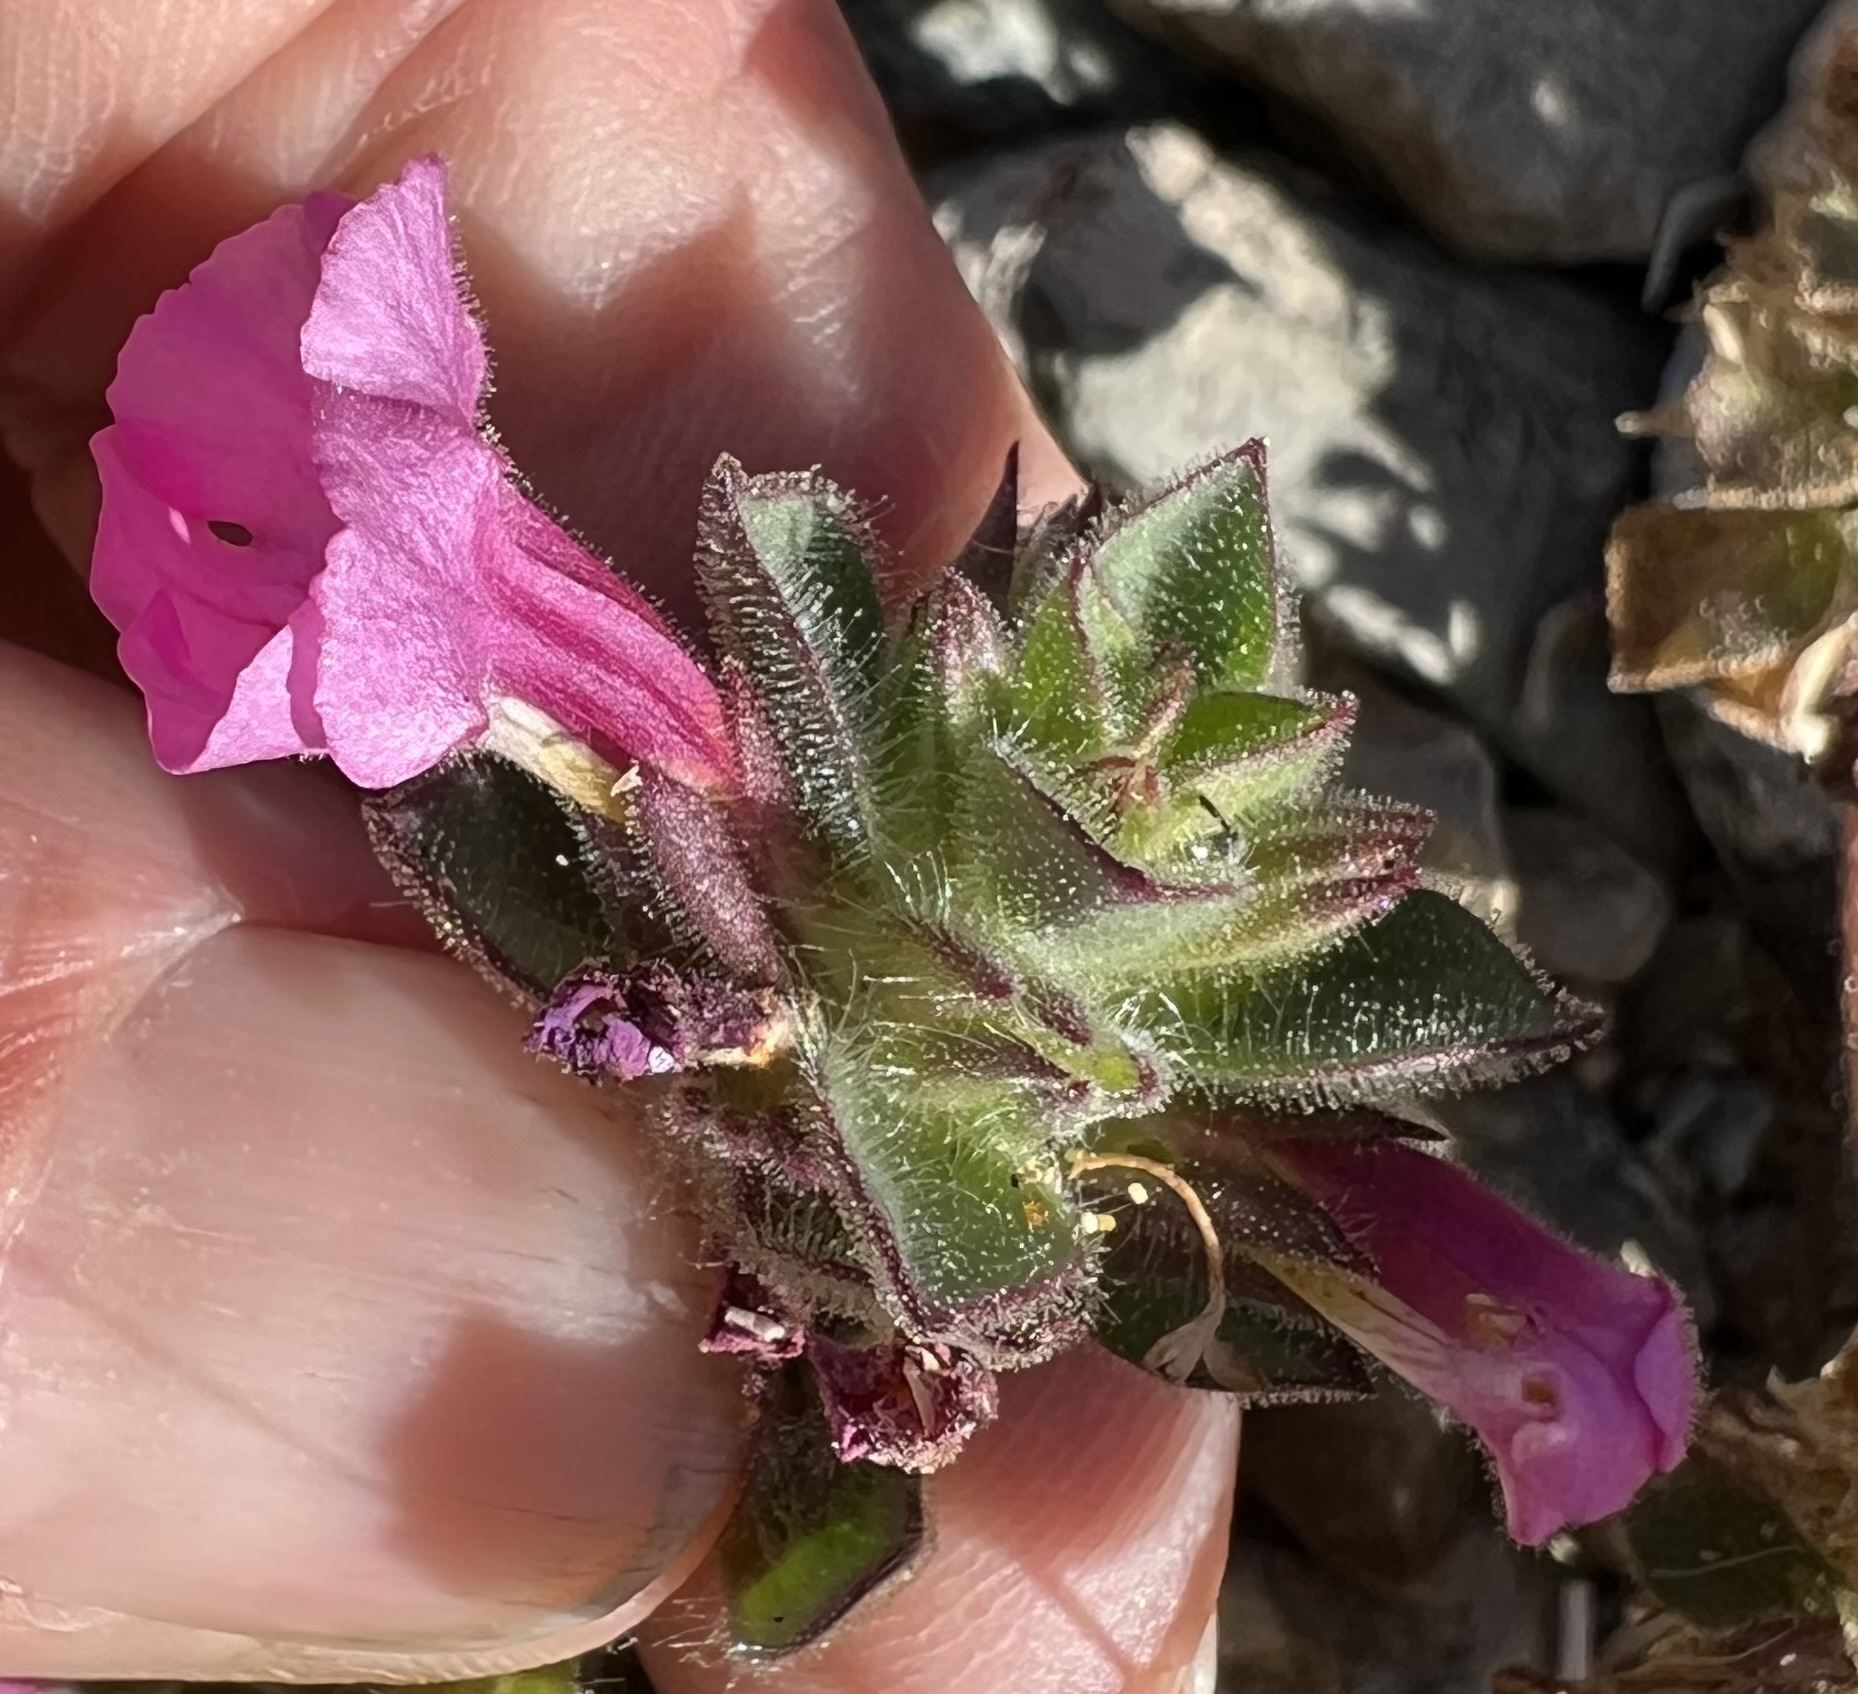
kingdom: Plantae
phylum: Tracheophyta
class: Magnoliopsida
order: Lamiales
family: Phrymaceae
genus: Diplacus
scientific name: Diplacus bigelovii
